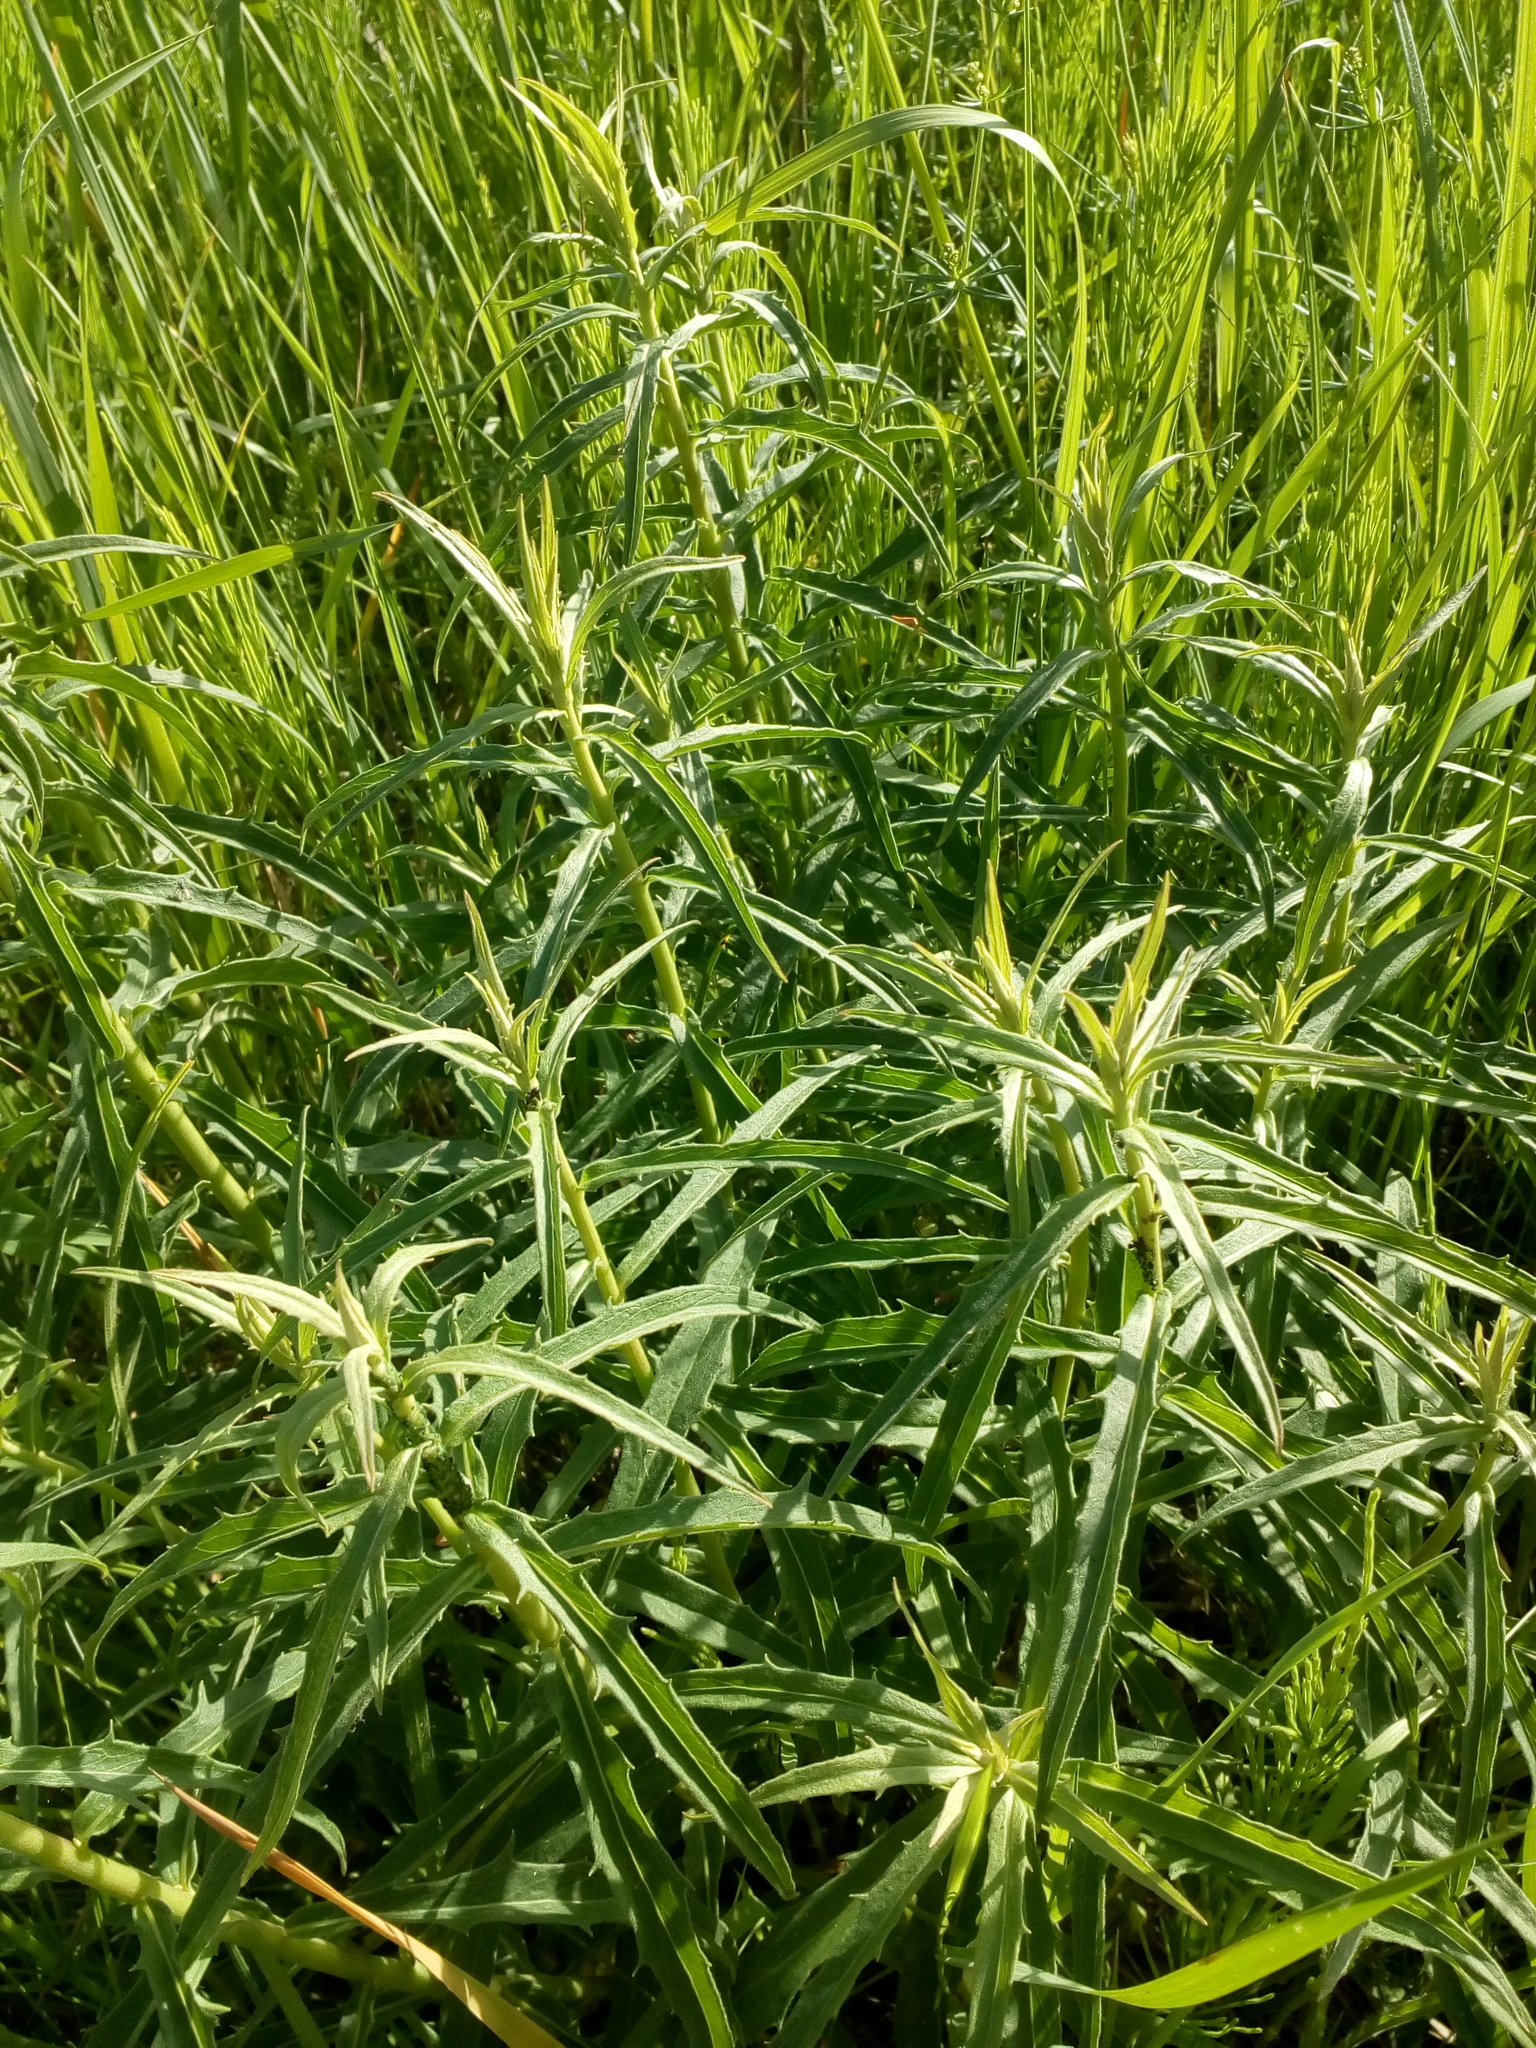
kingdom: Plantae
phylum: Tracheophyta
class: Magnoliopsida
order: Asterales
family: Asteraceae
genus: Hieracium
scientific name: Hieracium umbellatum
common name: Northern hawkweed
